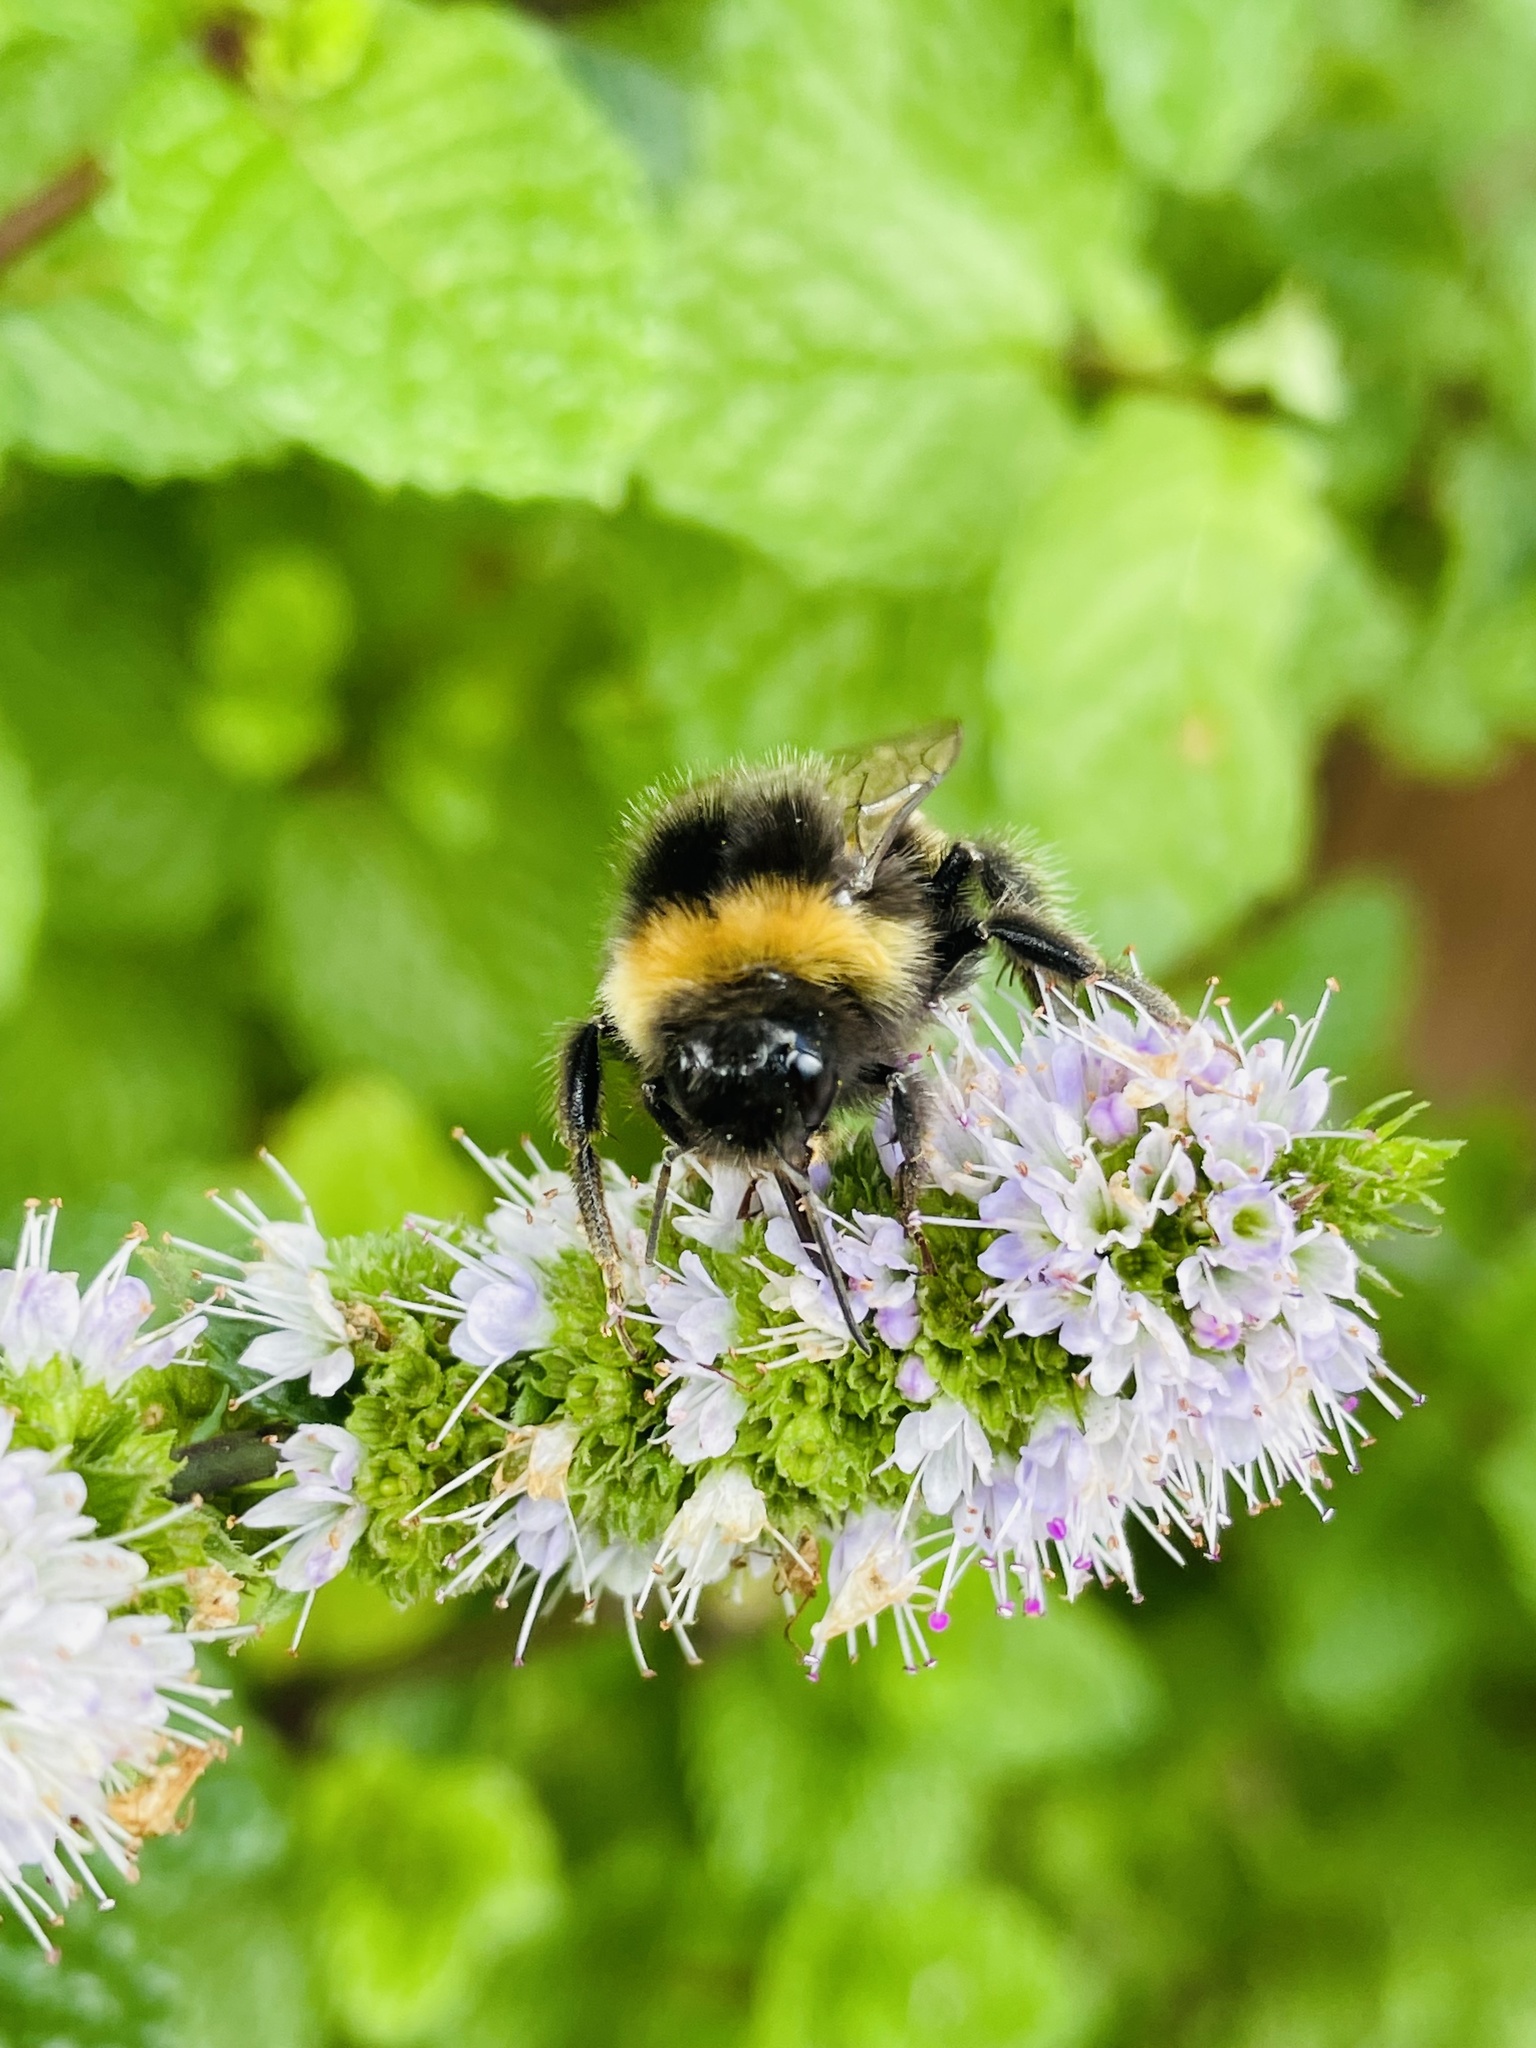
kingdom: Animalia
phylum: Arthropoda
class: Insecta
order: Hymenoptera
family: Apidae
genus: Bombus
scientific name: Bombus terrestris
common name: Buff-tailed bumblebee
